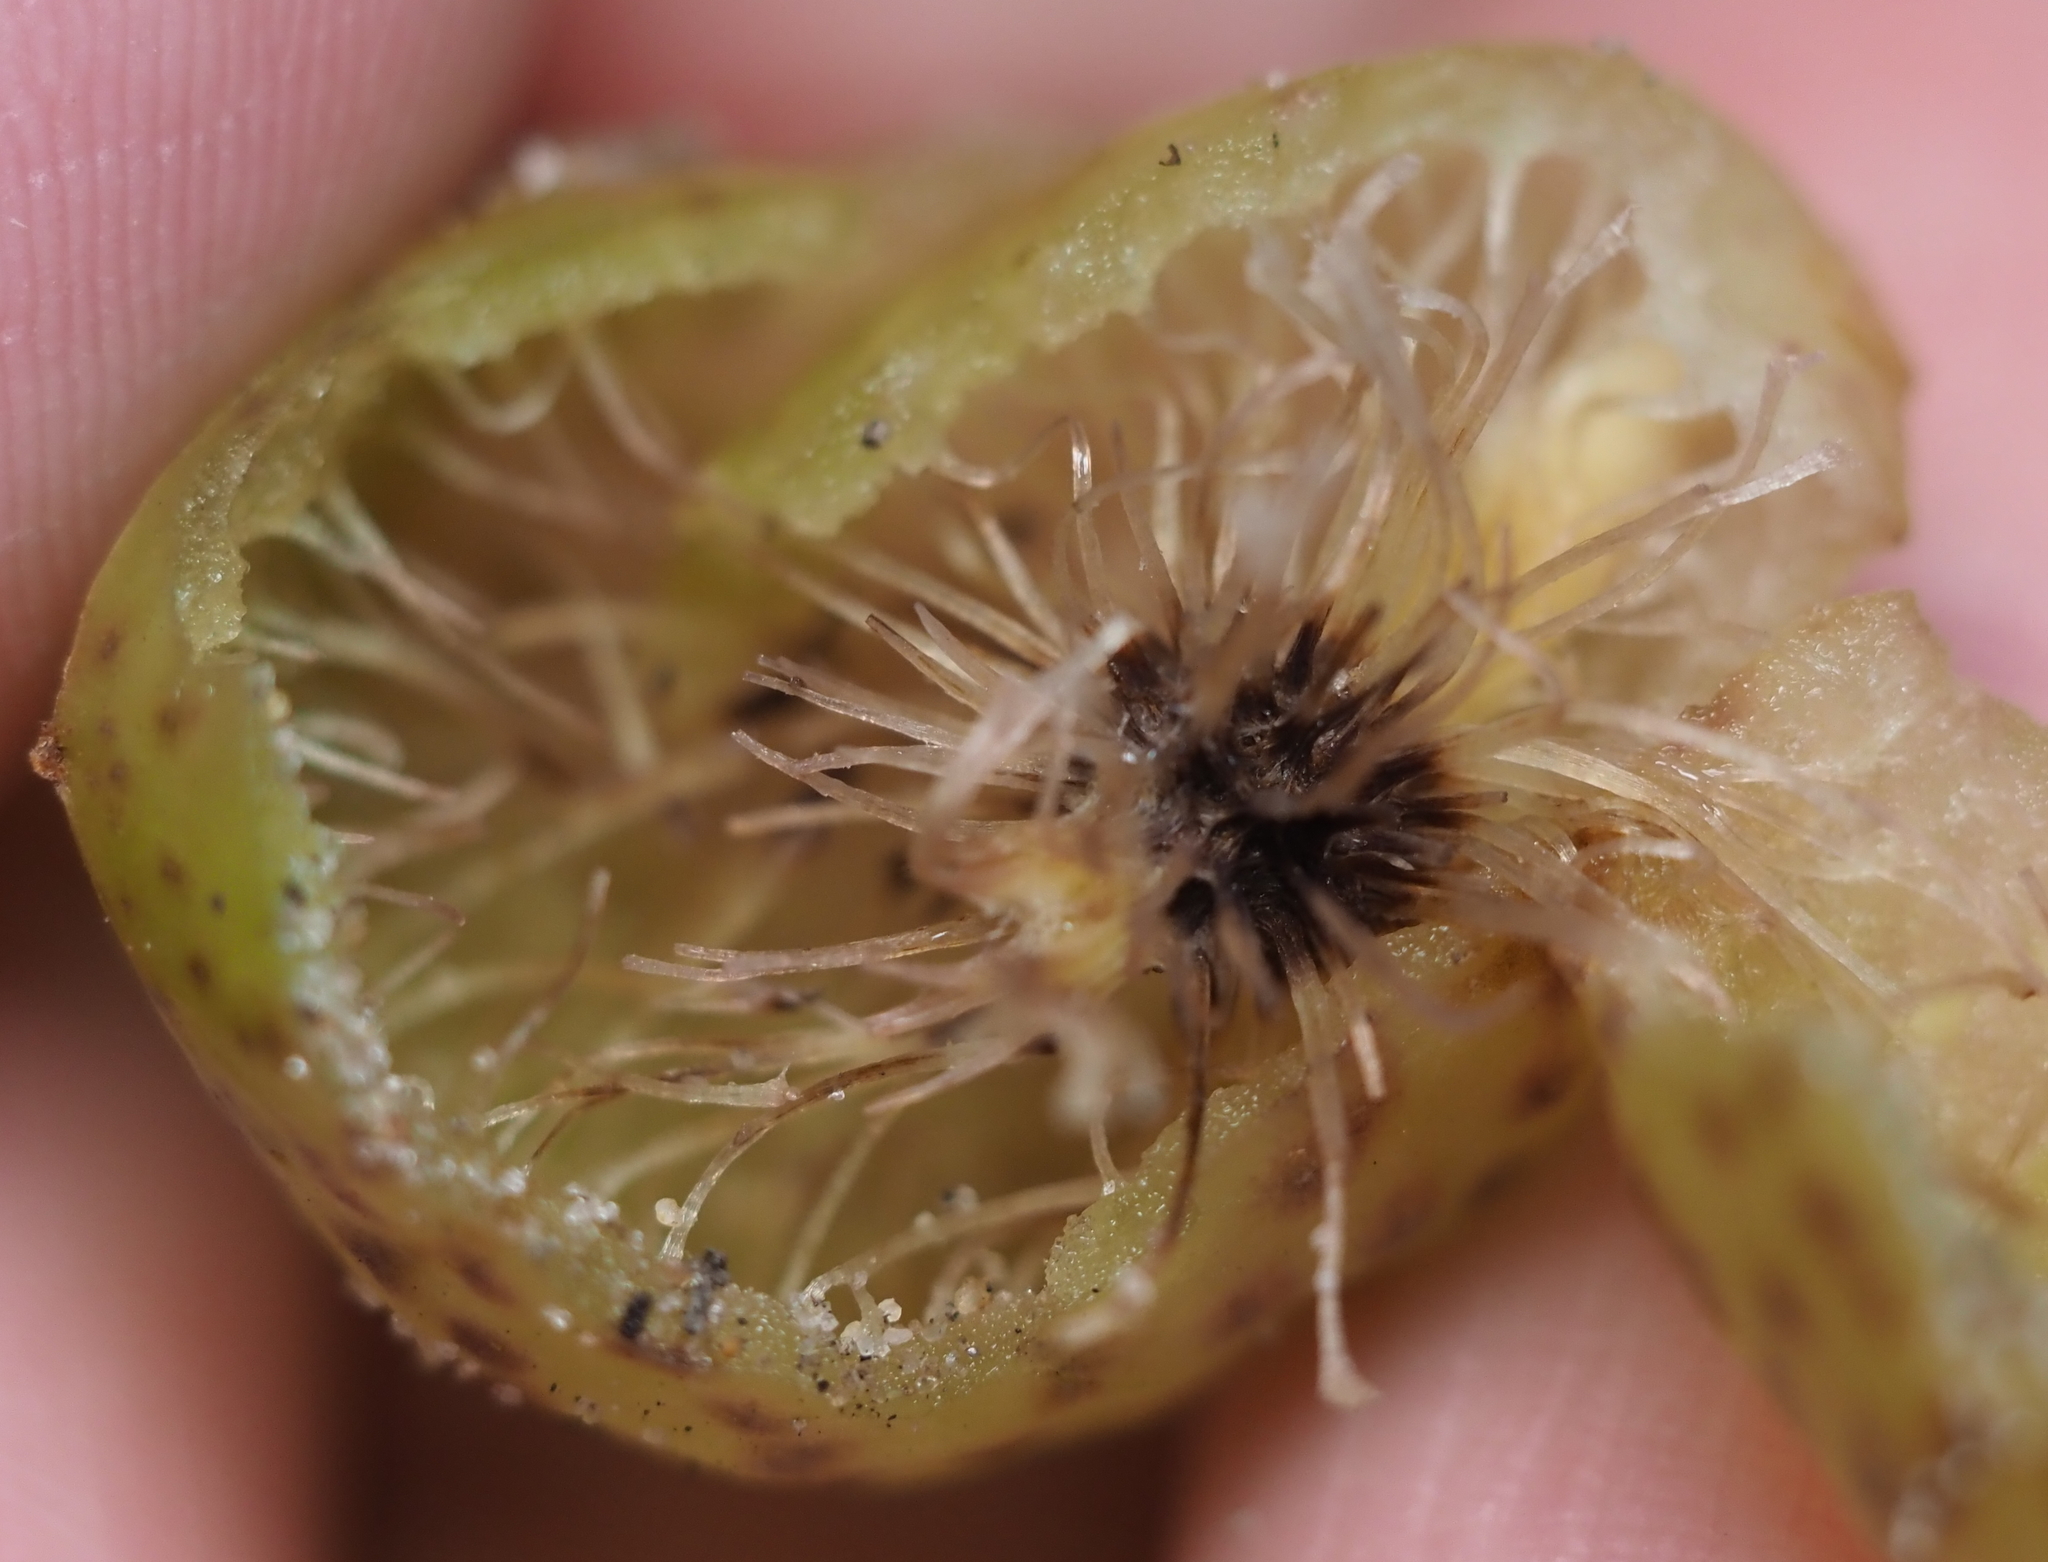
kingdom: Animalia
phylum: Arthropoda
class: Insecta
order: Hymenoptera
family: Cynipidae
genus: Amphibolips
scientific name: Amphibolips
